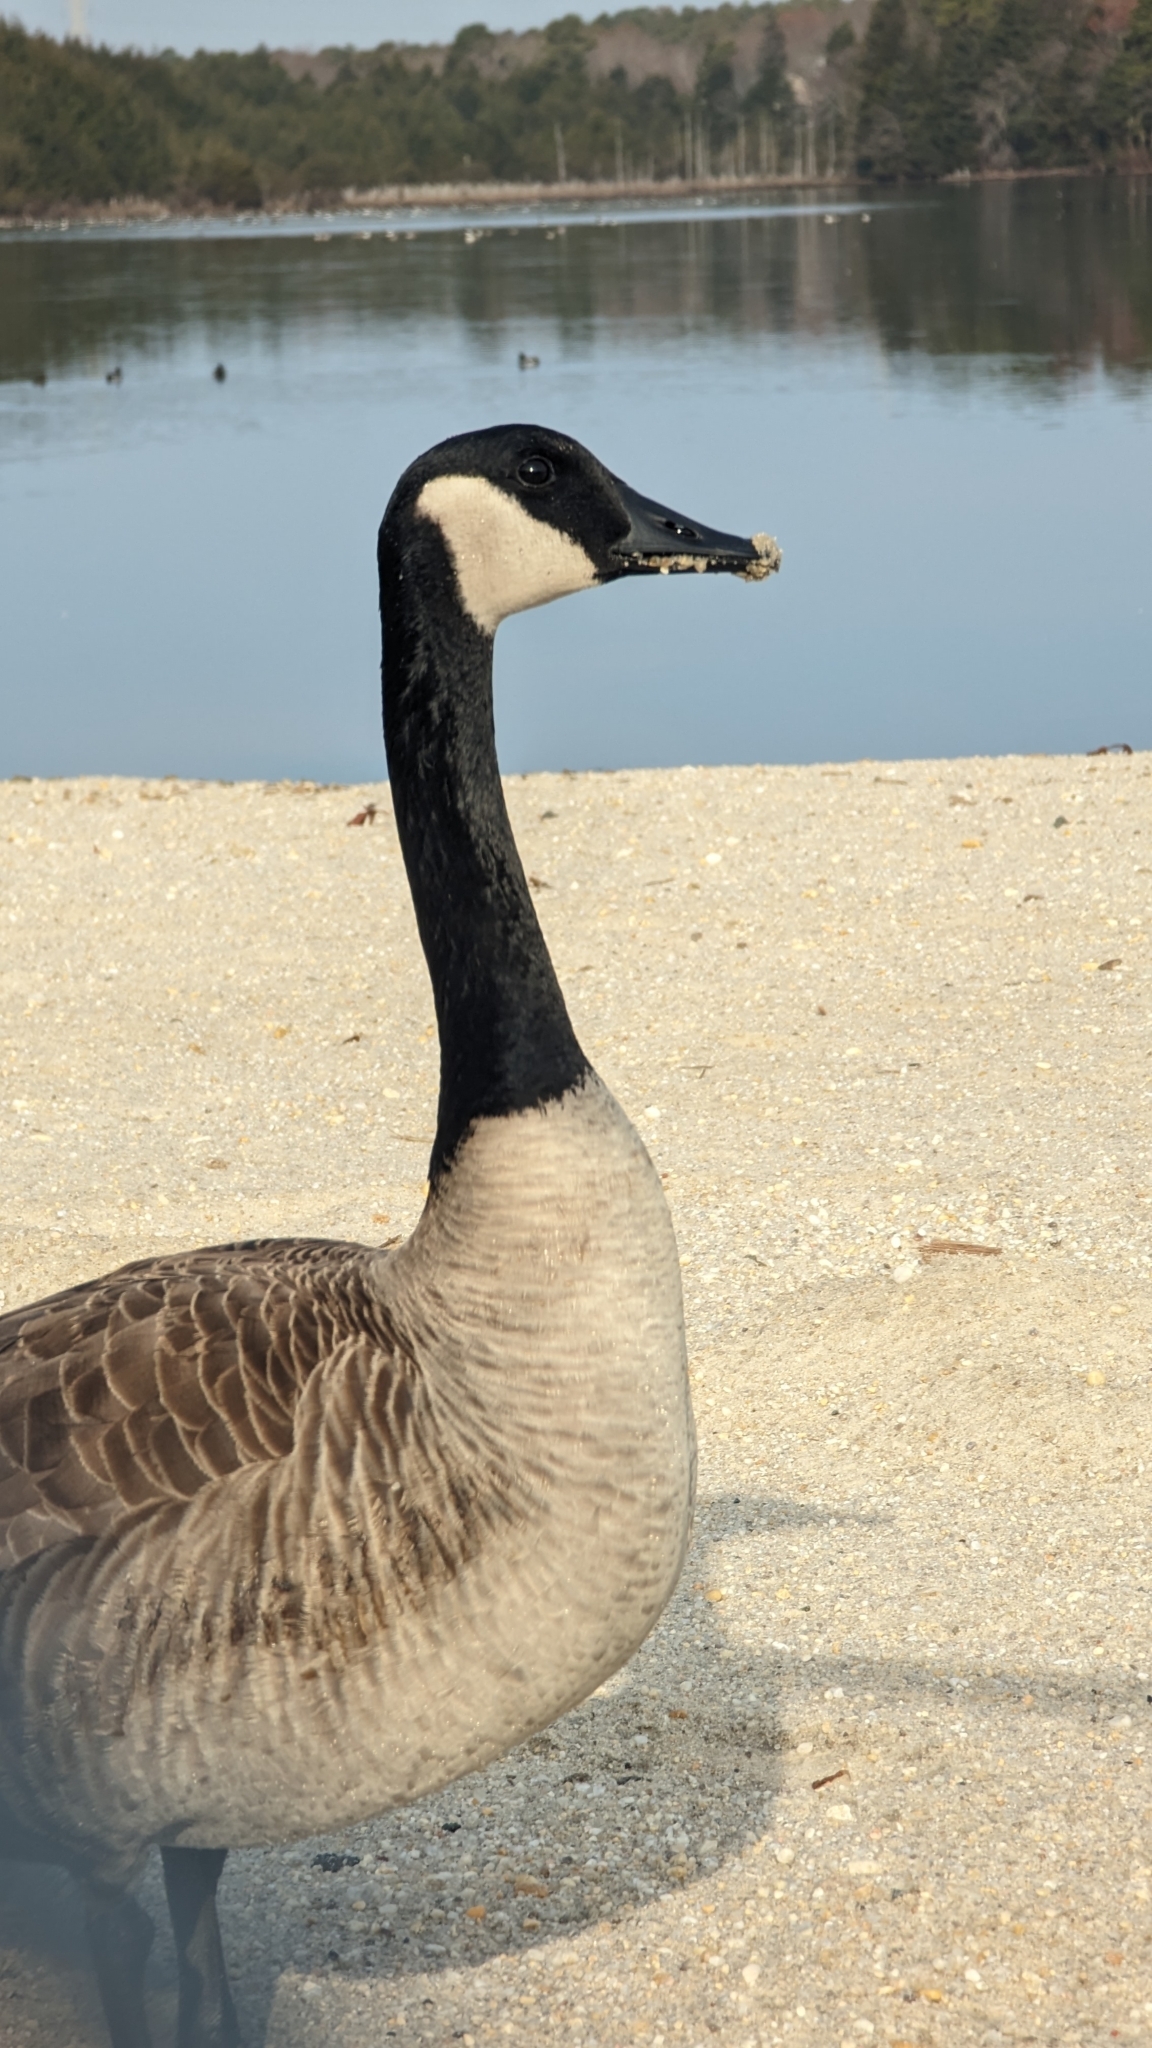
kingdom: Animalia
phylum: Chordata
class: Aves
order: Anseriformes
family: Anatidae
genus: Branta
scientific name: Branta canadensis
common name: Canada goose
